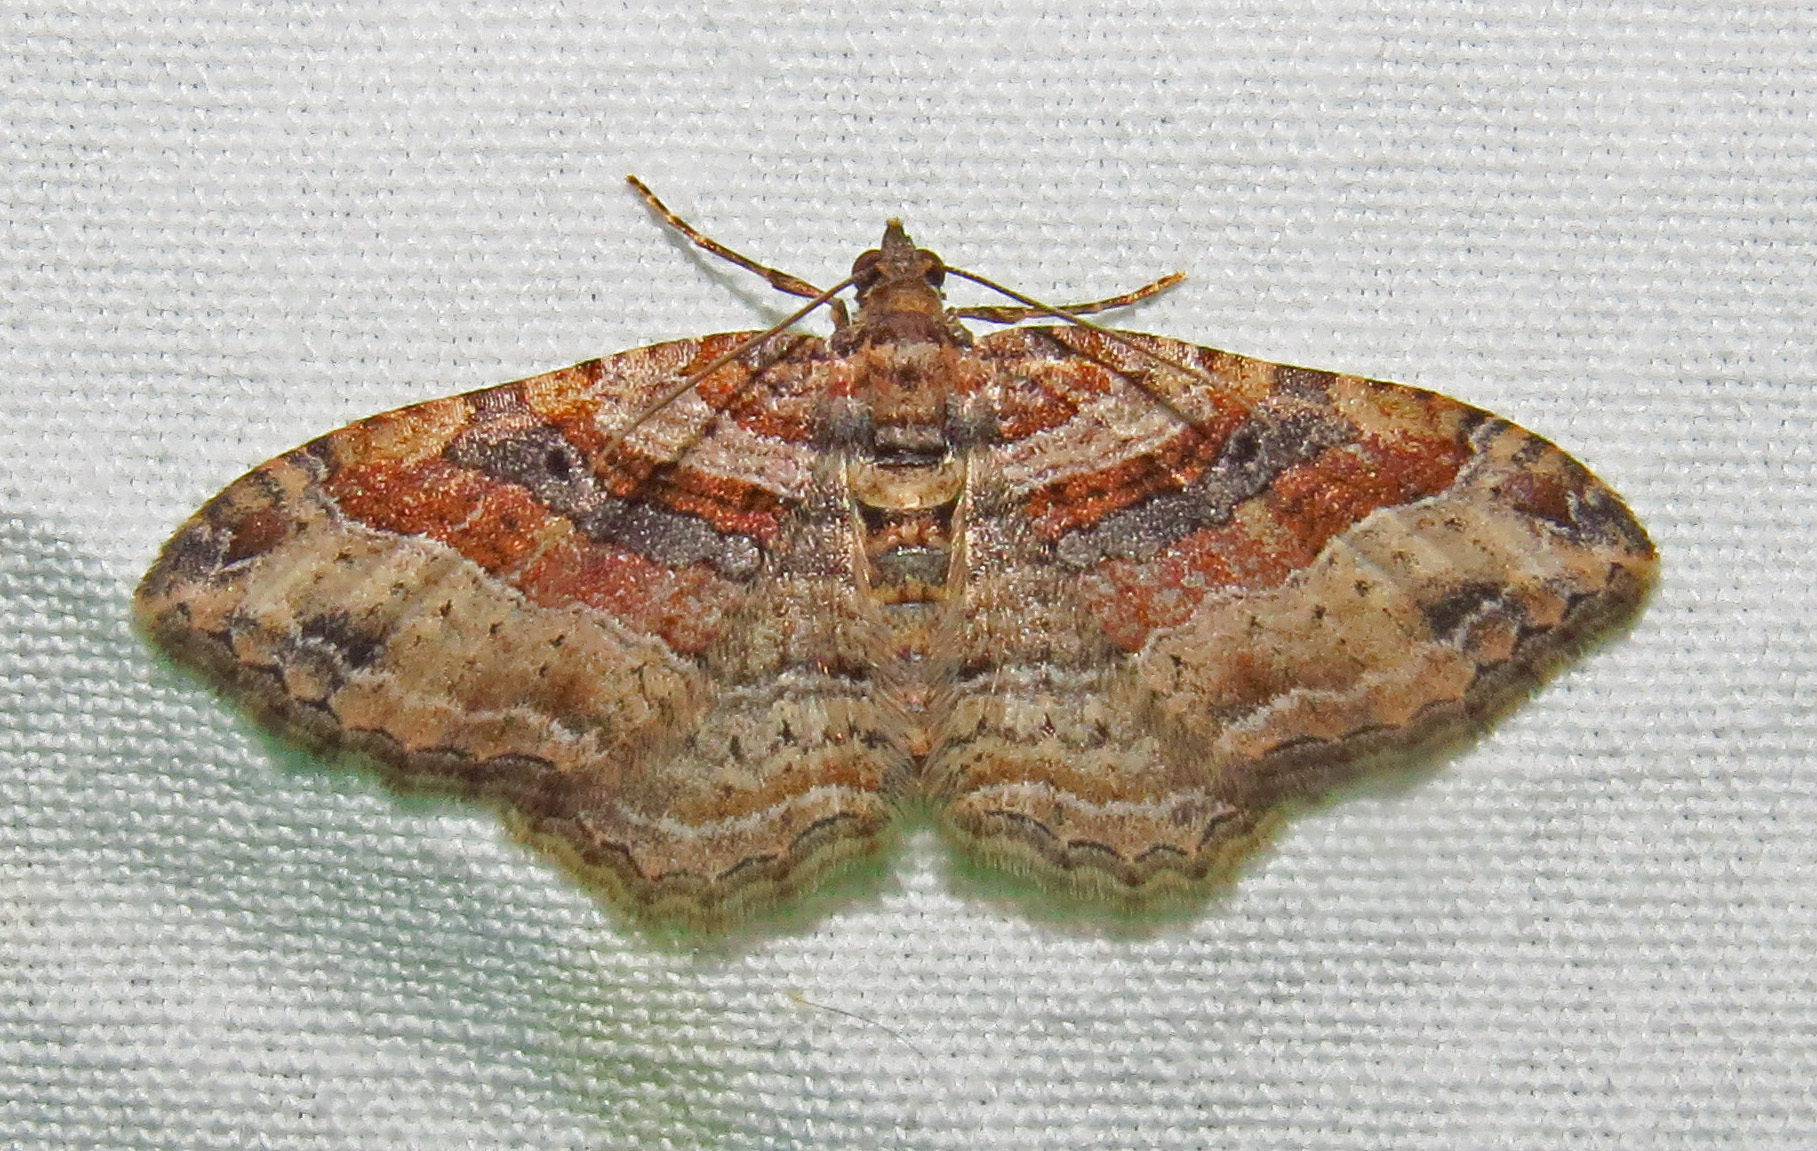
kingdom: Animalia
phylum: Arthropoda
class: Insecta
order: Lepidoptera
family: Geometridae
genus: Costaconvexa
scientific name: Costaconvexa centrostrigaria
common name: Bent-line carpet
